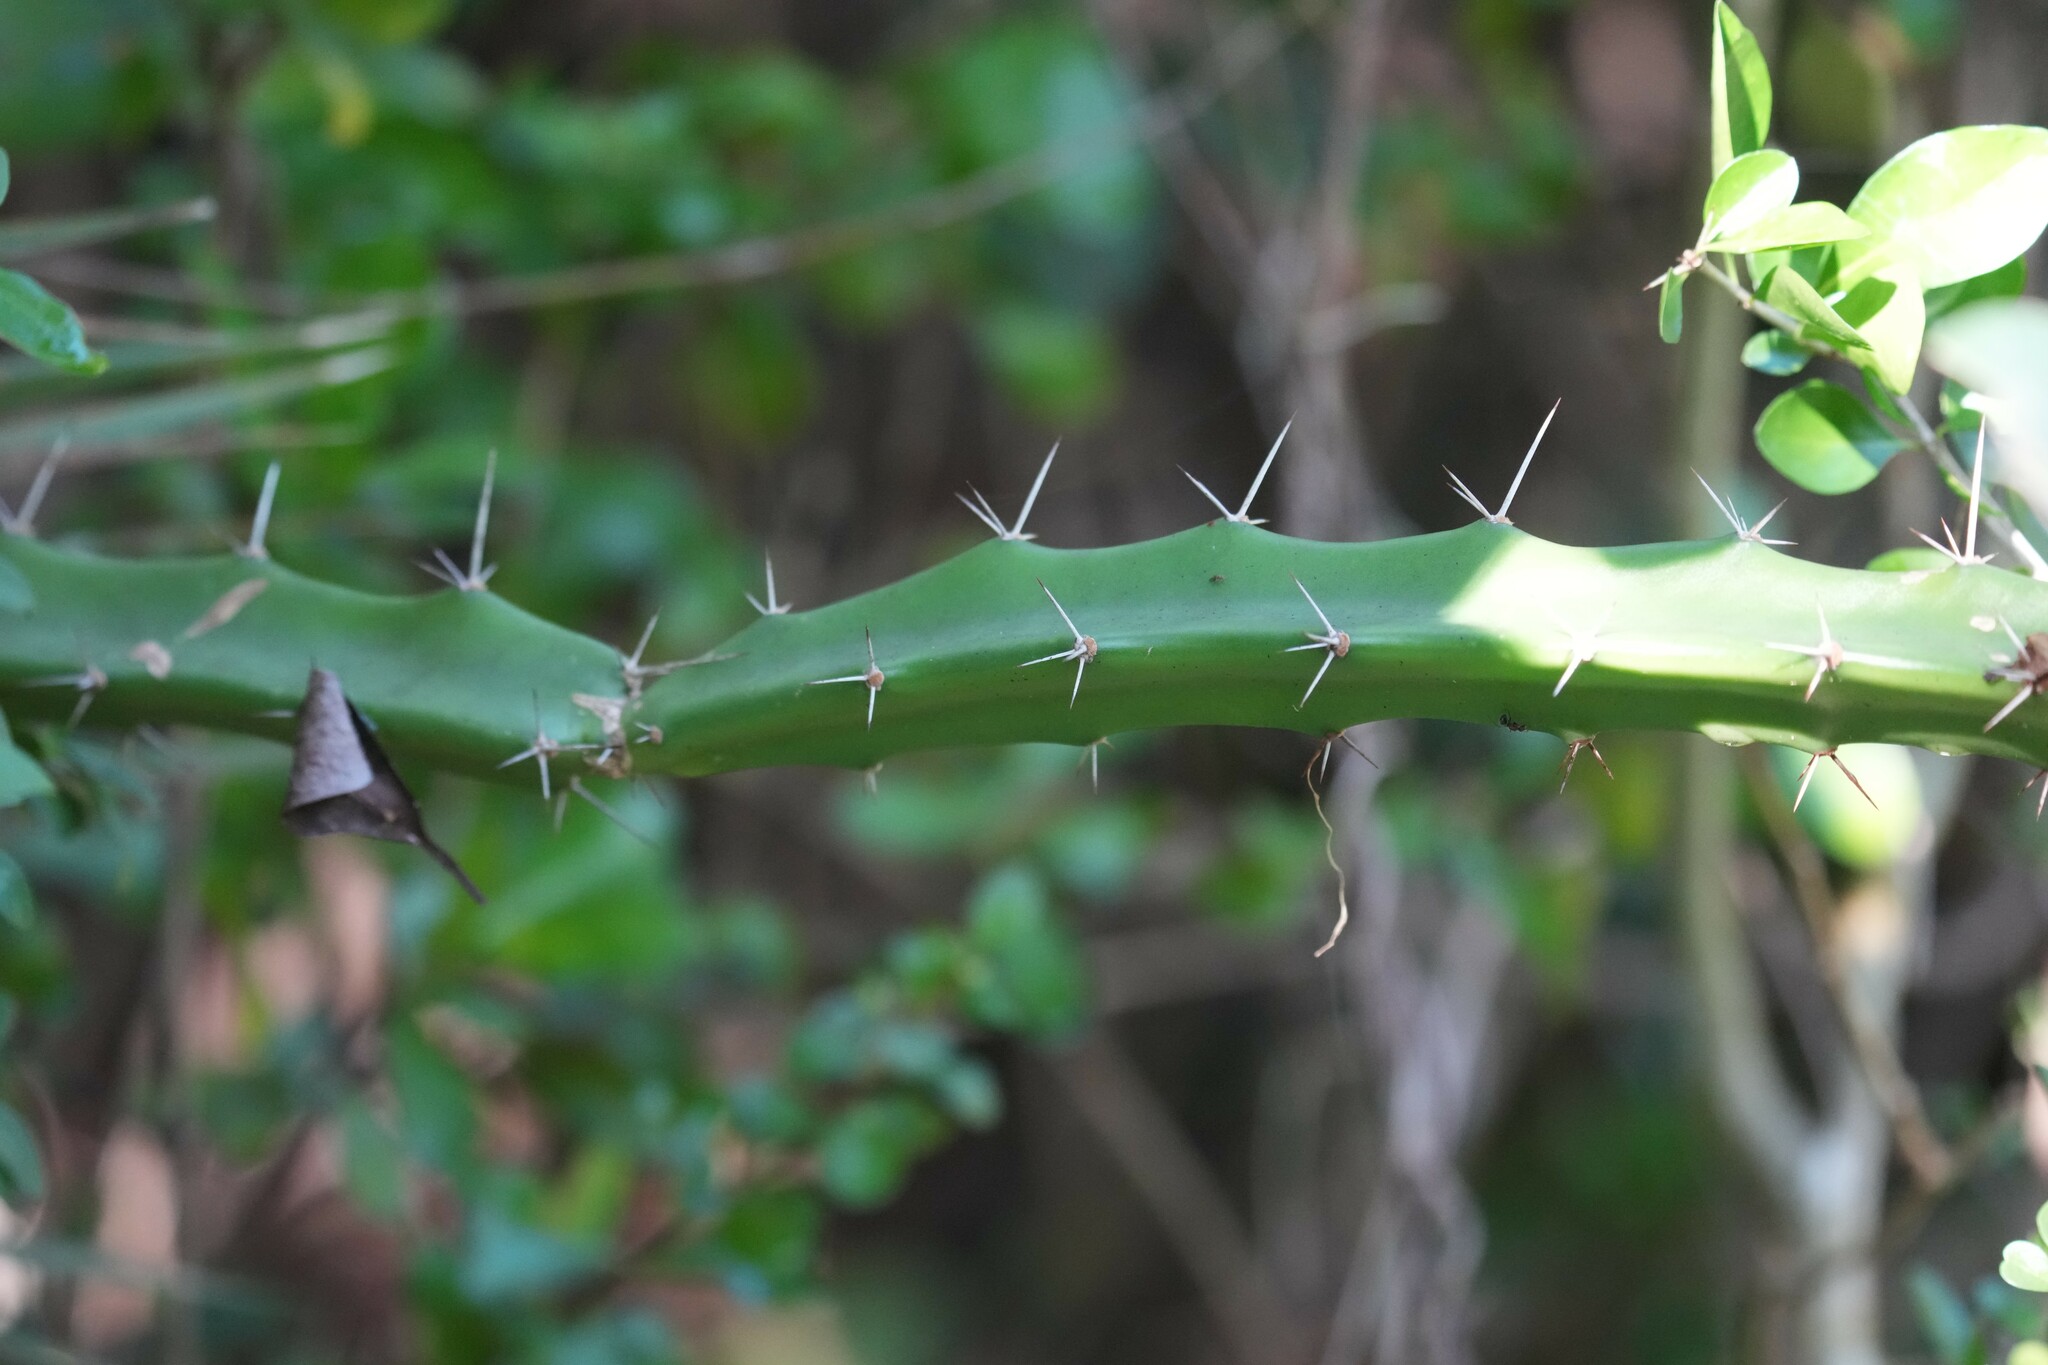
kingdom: Plantae
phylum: Tracheophyta
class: Magnoliopsida
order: Caryophyllales
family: Cactaceae
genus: Acanthocereus
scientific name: Acanthocereus tetragonus
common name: Triangle cactus
